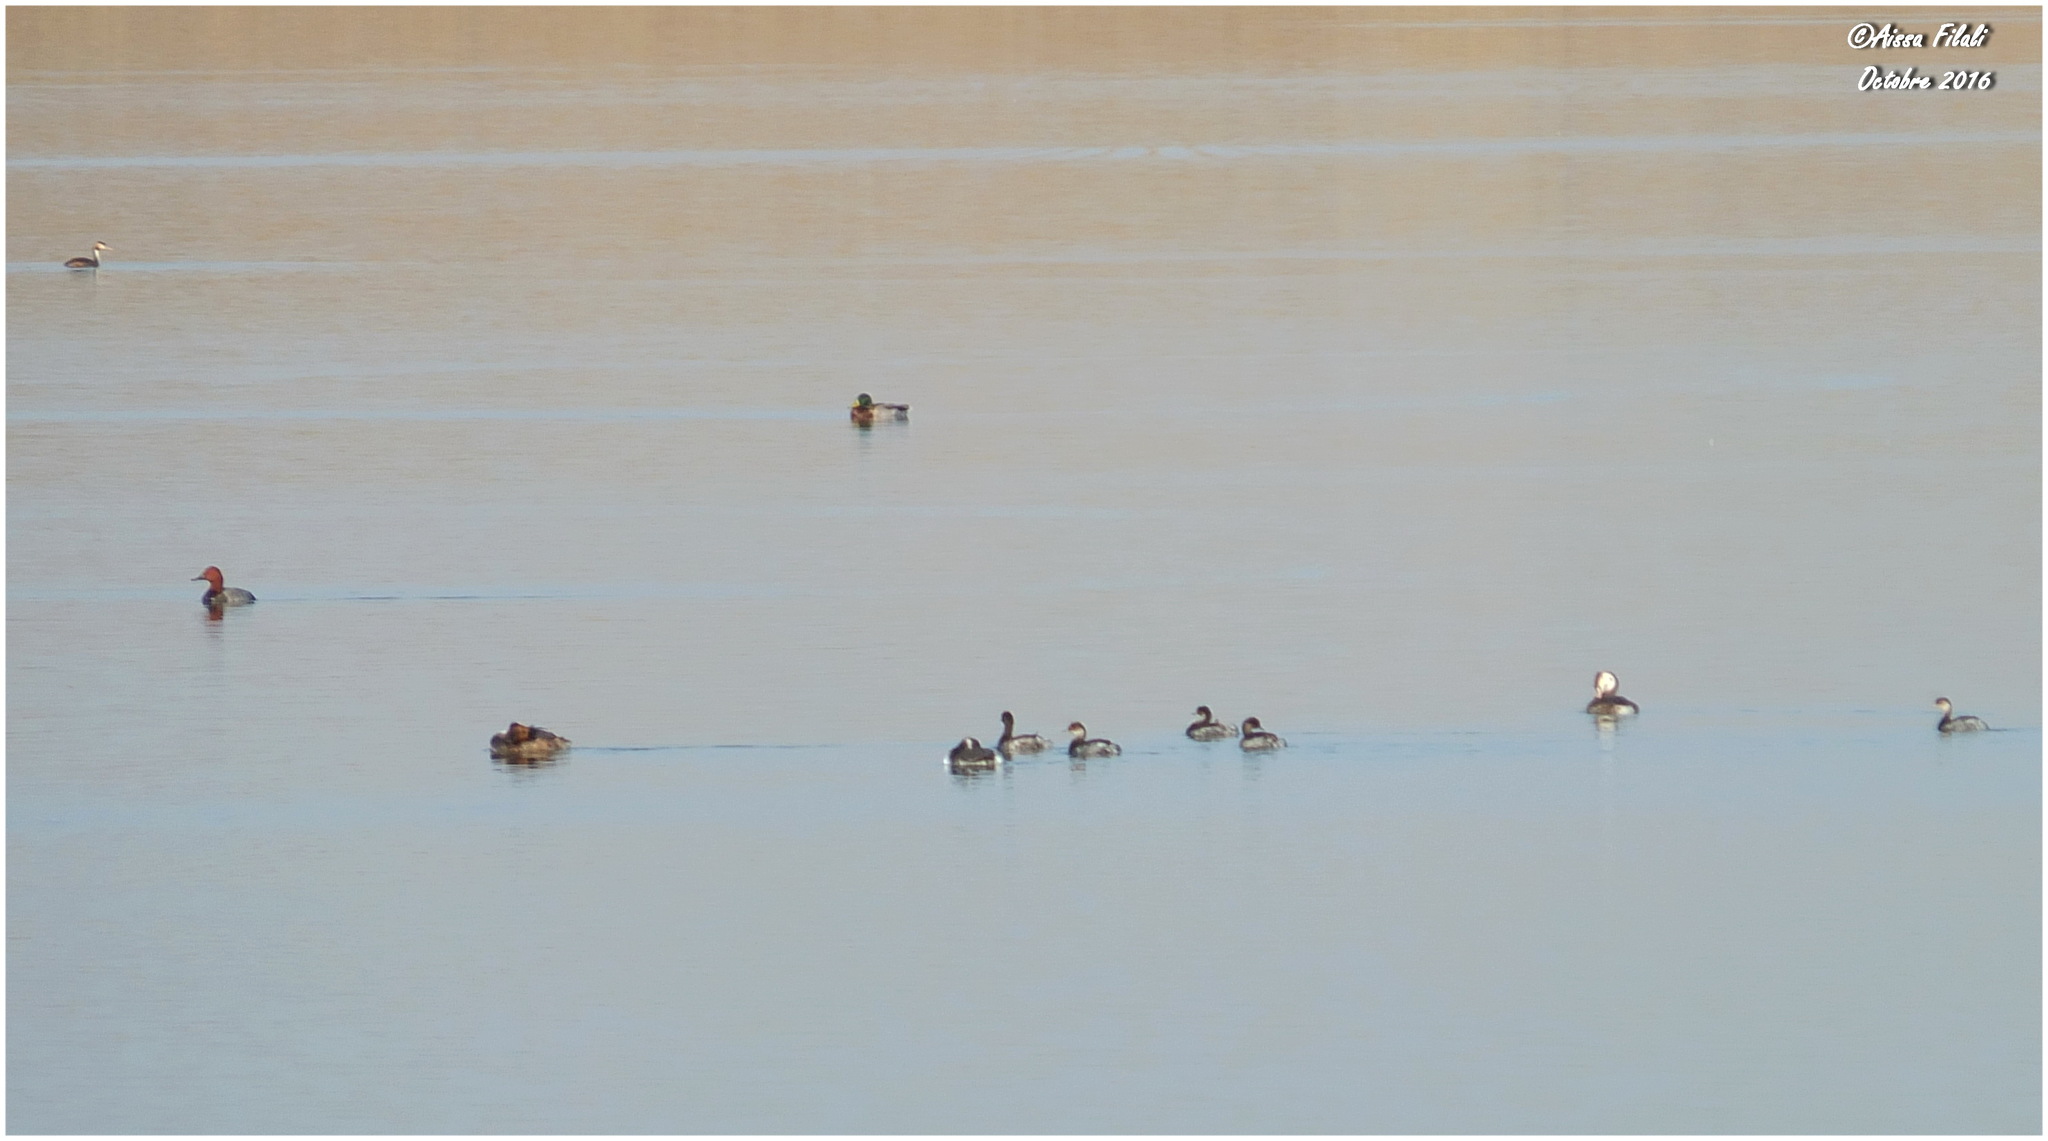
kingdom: Animalia
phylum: Chordata
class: Aves
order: Anseriformes
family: Anatidae
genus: Aythya
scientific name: Aythya ferina
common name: Common pochard
